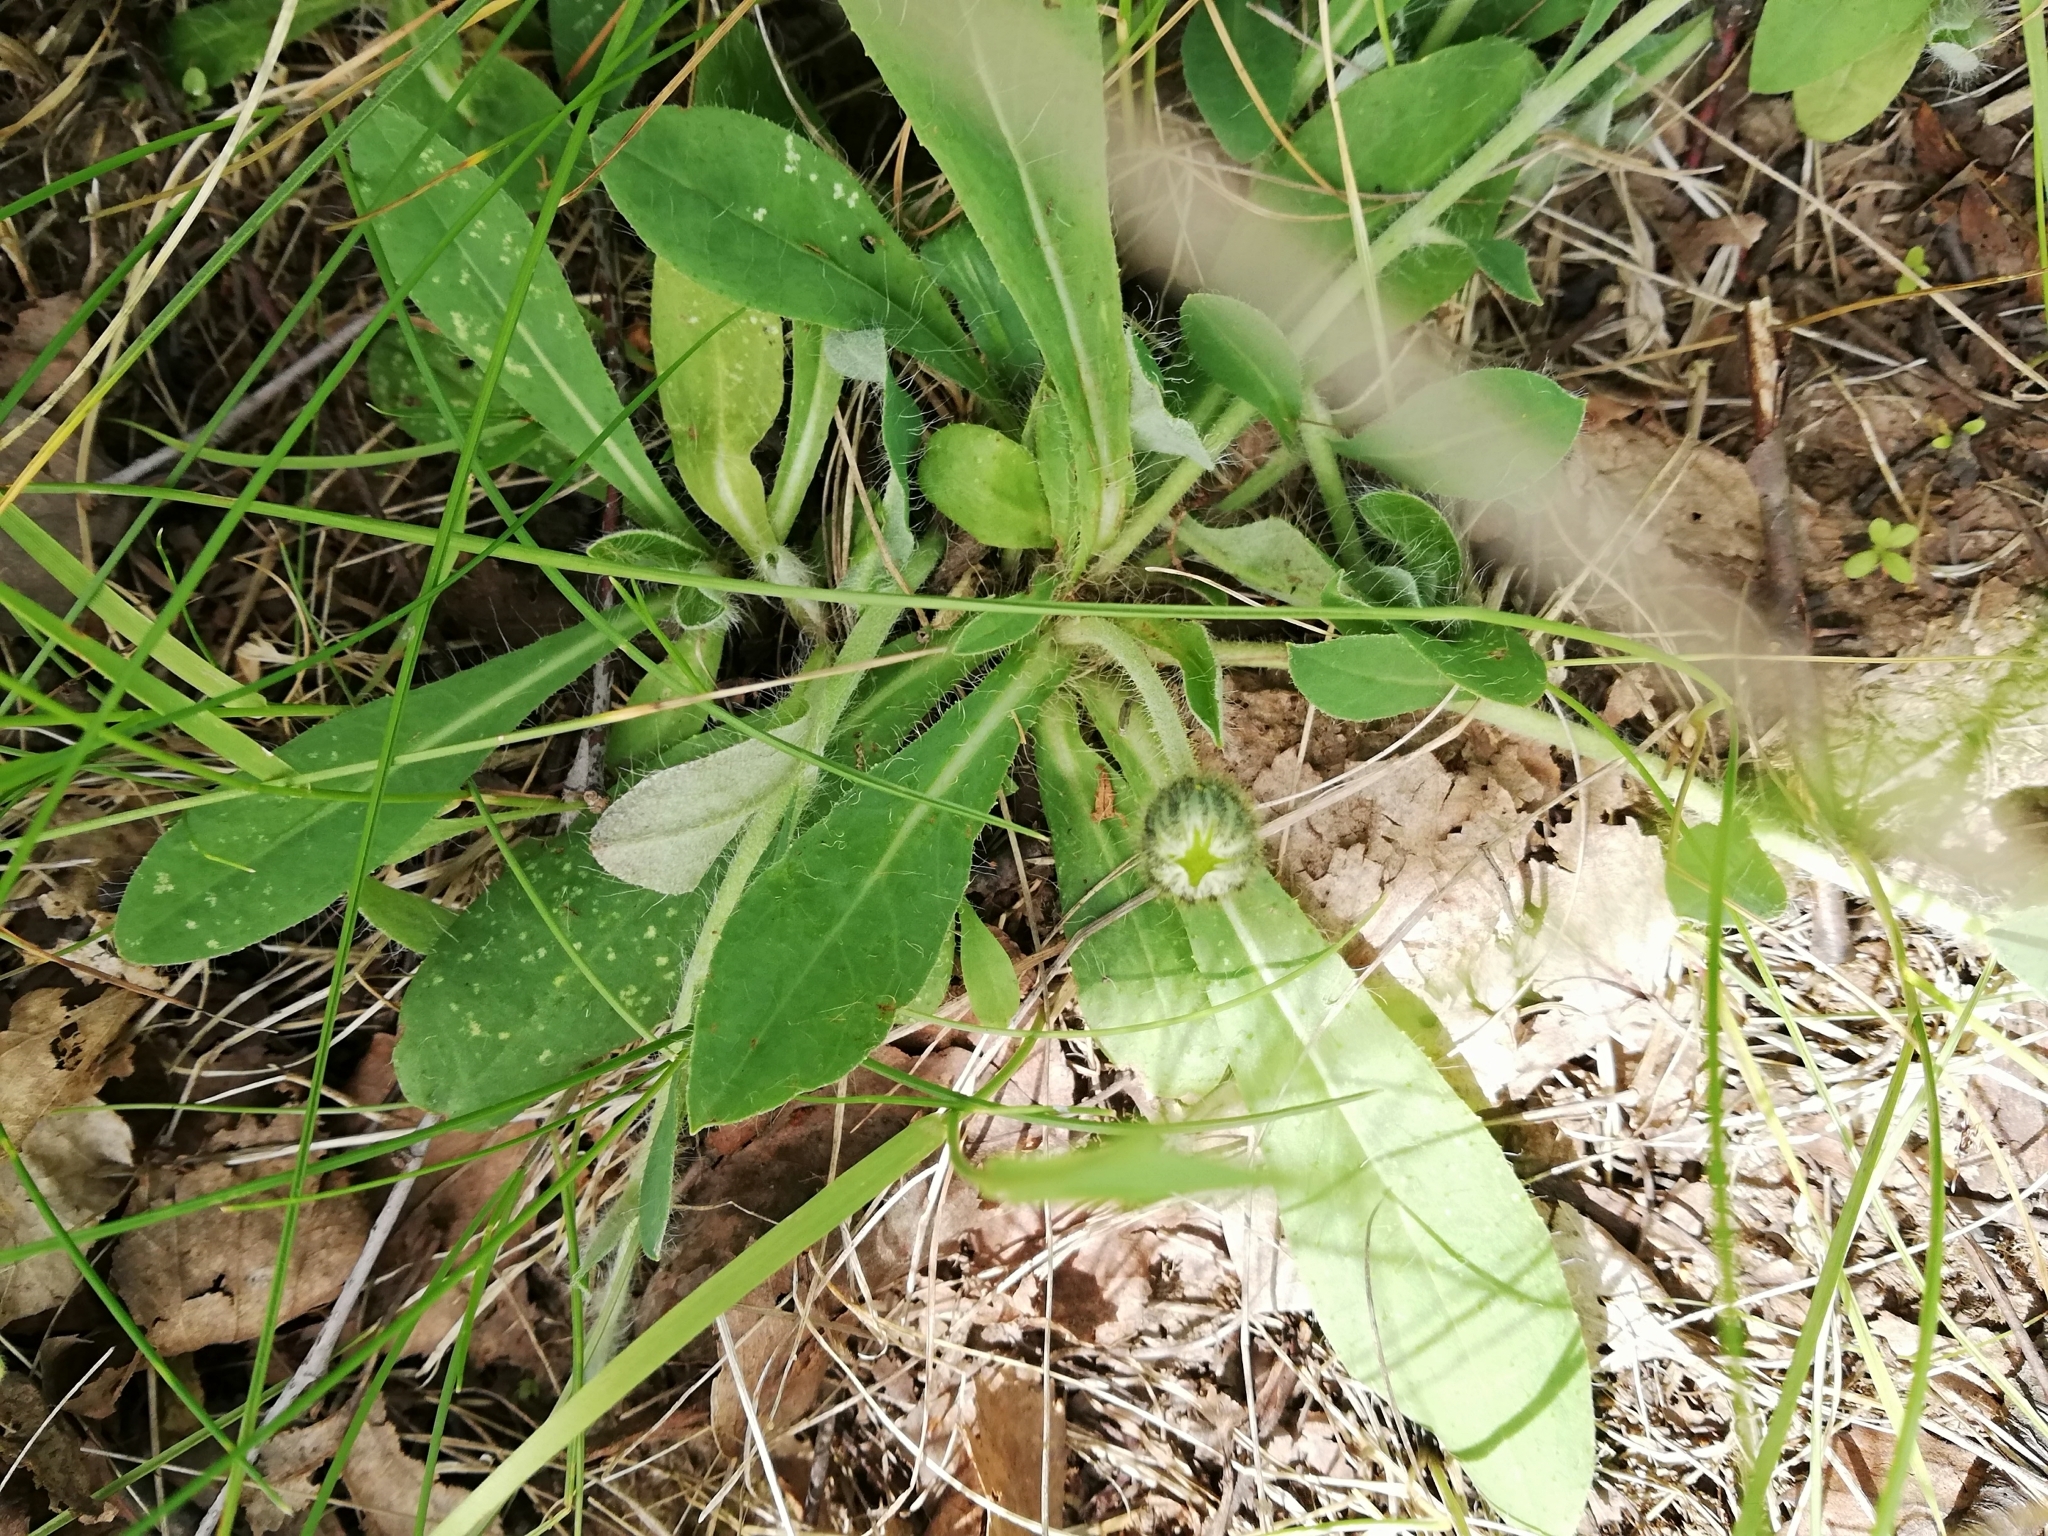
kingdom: Plantae
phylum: Tracheophyta
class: Magnoliopsida
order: Asterales
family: Asteraceae
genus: Pilosella
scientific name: Pilosella officinarum
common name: Mouse-ear hawkweed
